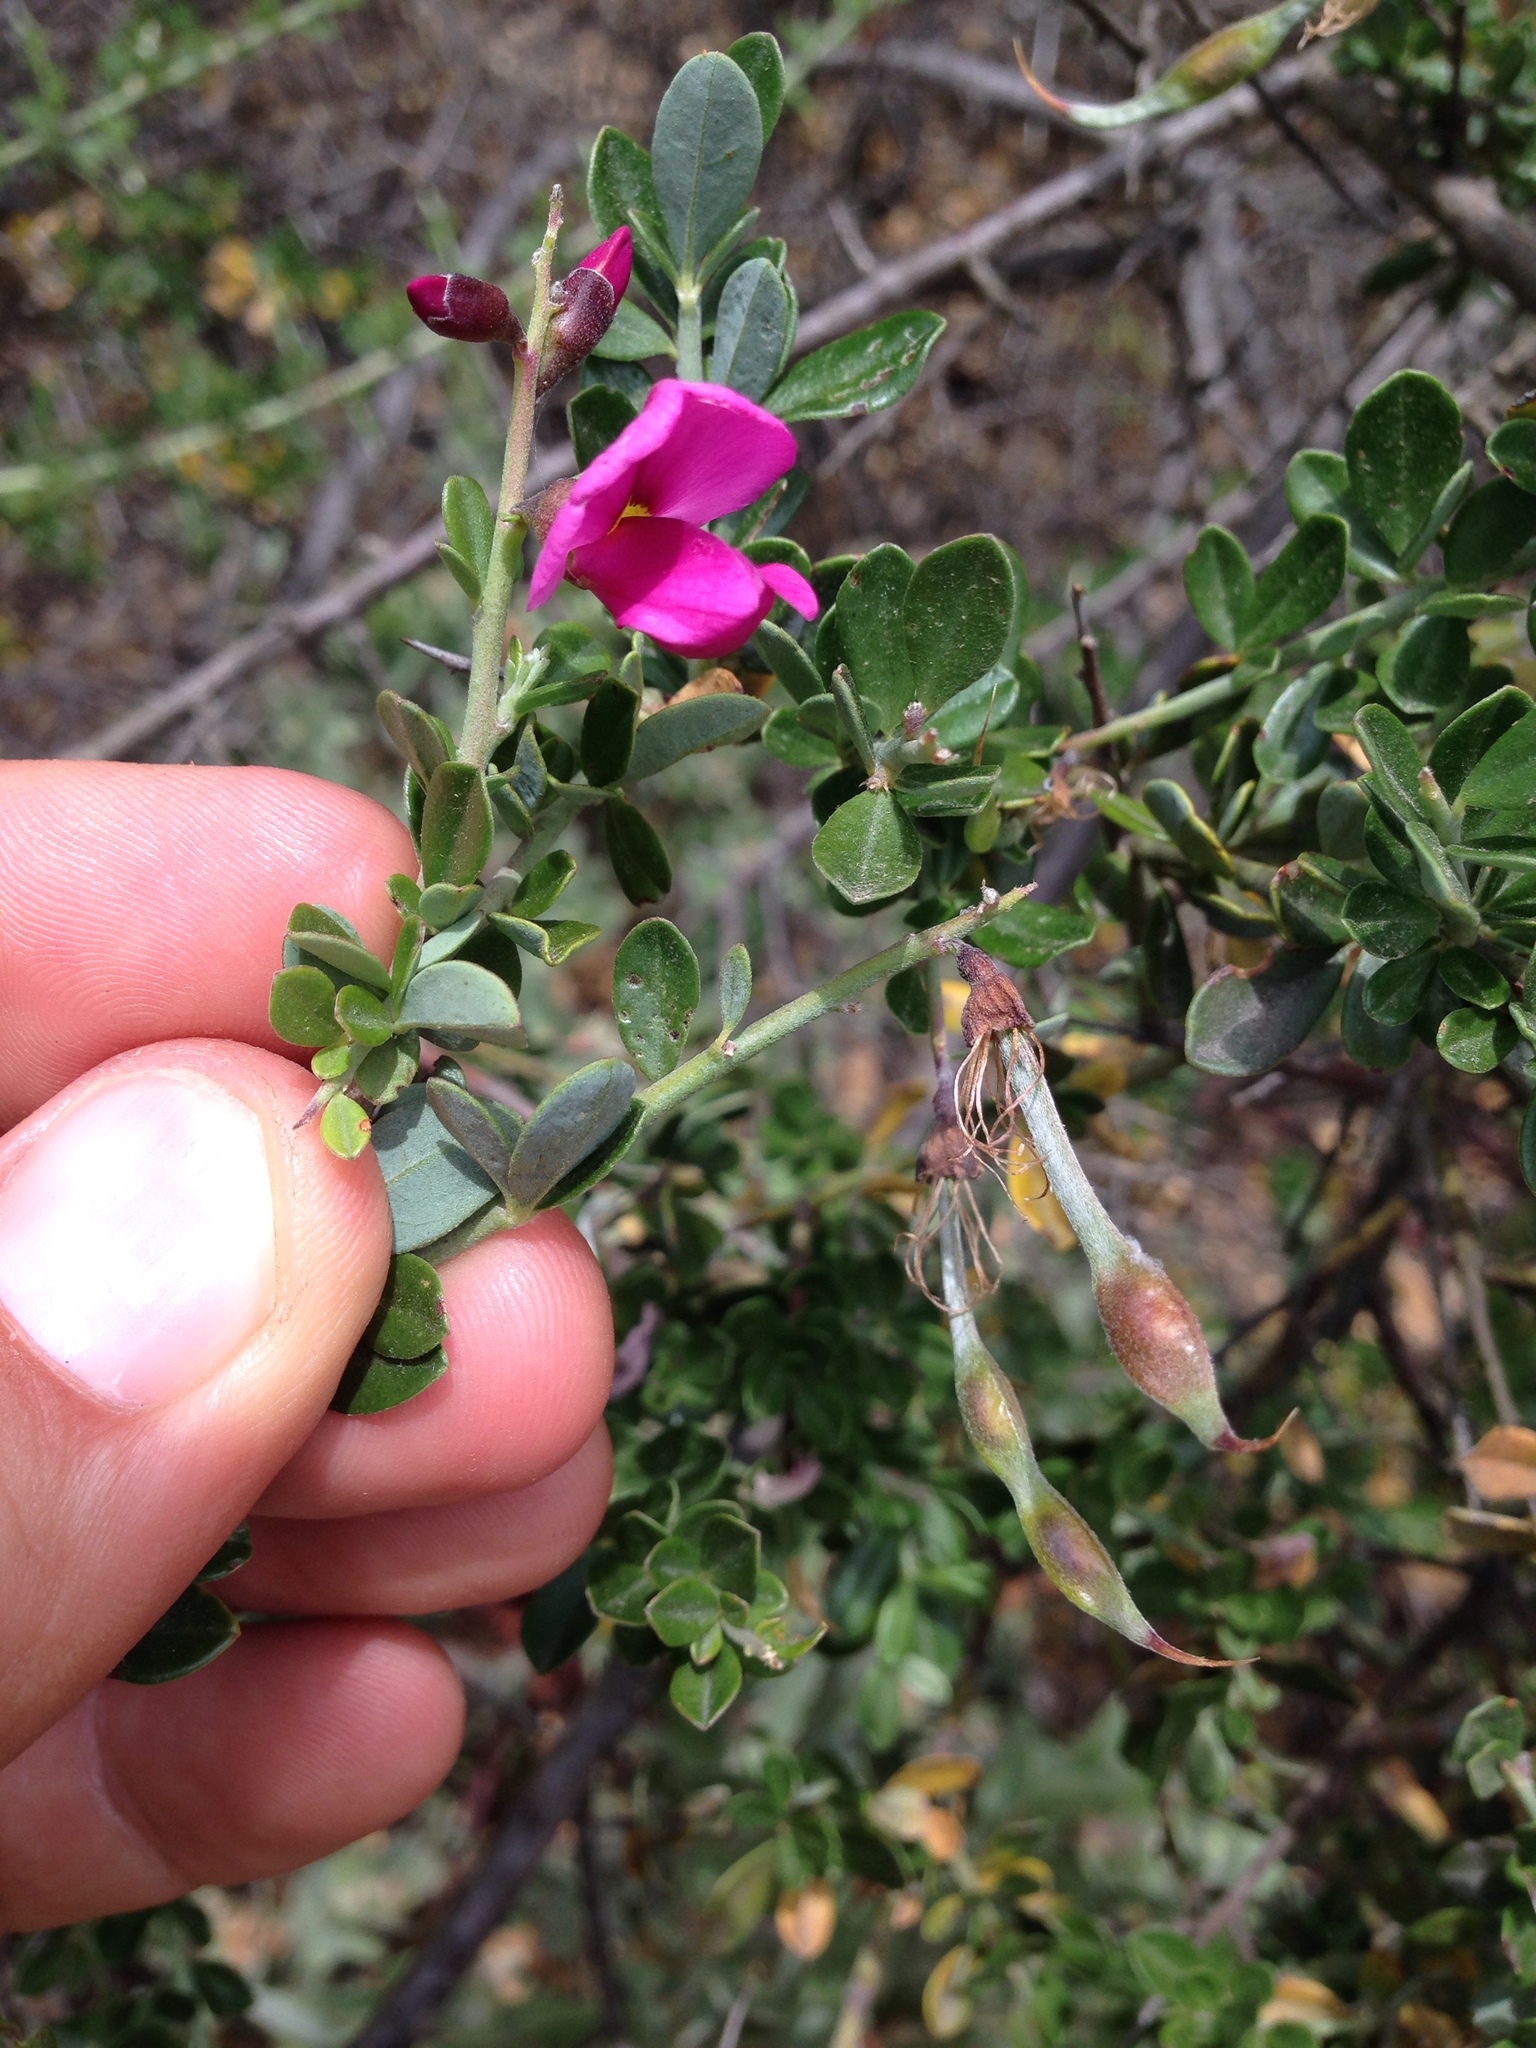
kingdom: Plantae
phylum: Tracheophyta
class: Magnoliopsida
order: Fabales
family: Fabaceae
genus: Pickeringia
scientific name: Pickeringia montana
